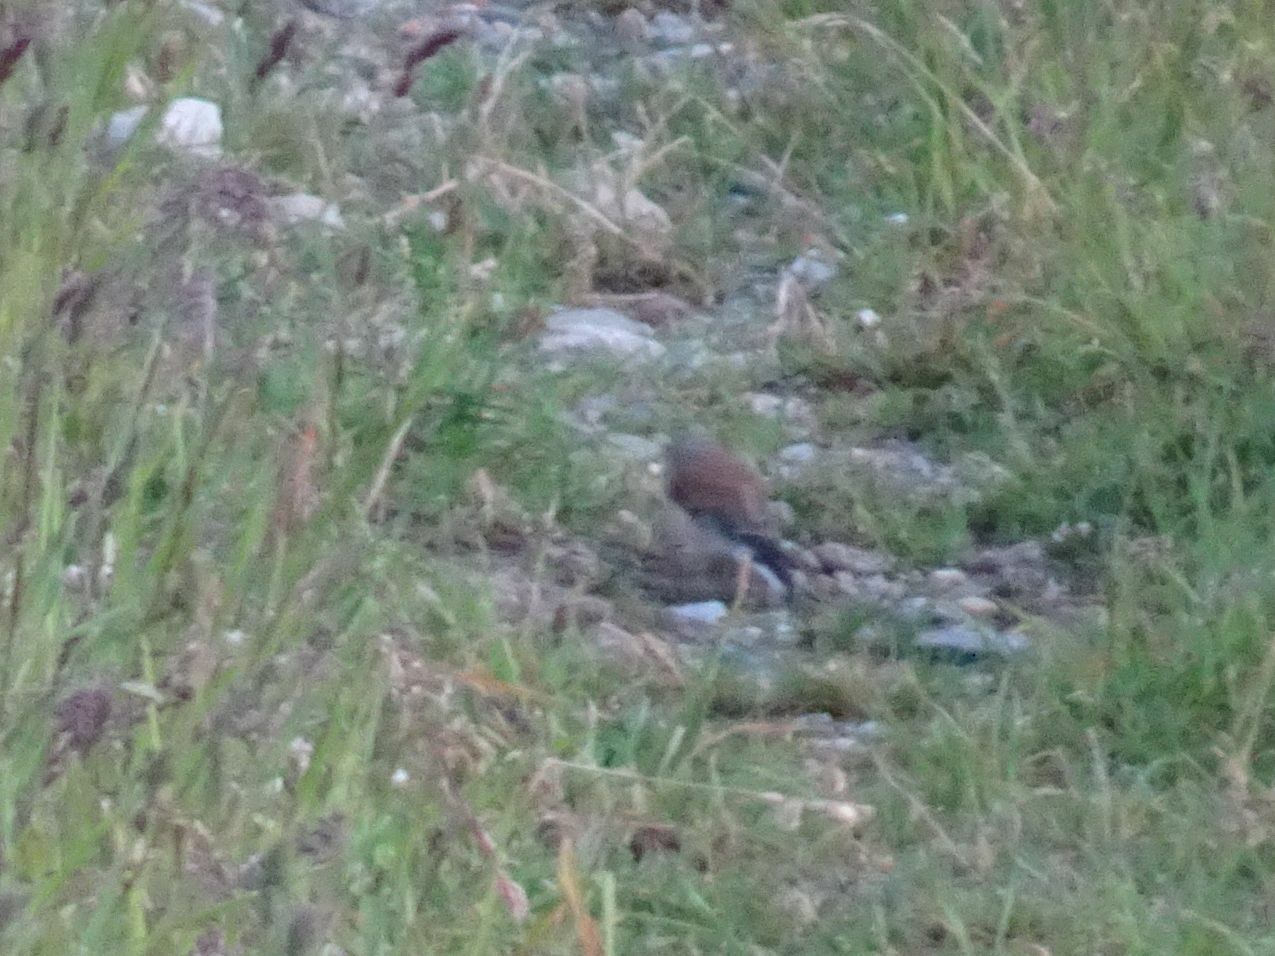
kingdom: Animalia
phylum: Chordata
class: Aves
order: Passeriformes
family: Fringillidae
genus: Linaria
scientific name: Linaria cannabina
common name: Common linnet
